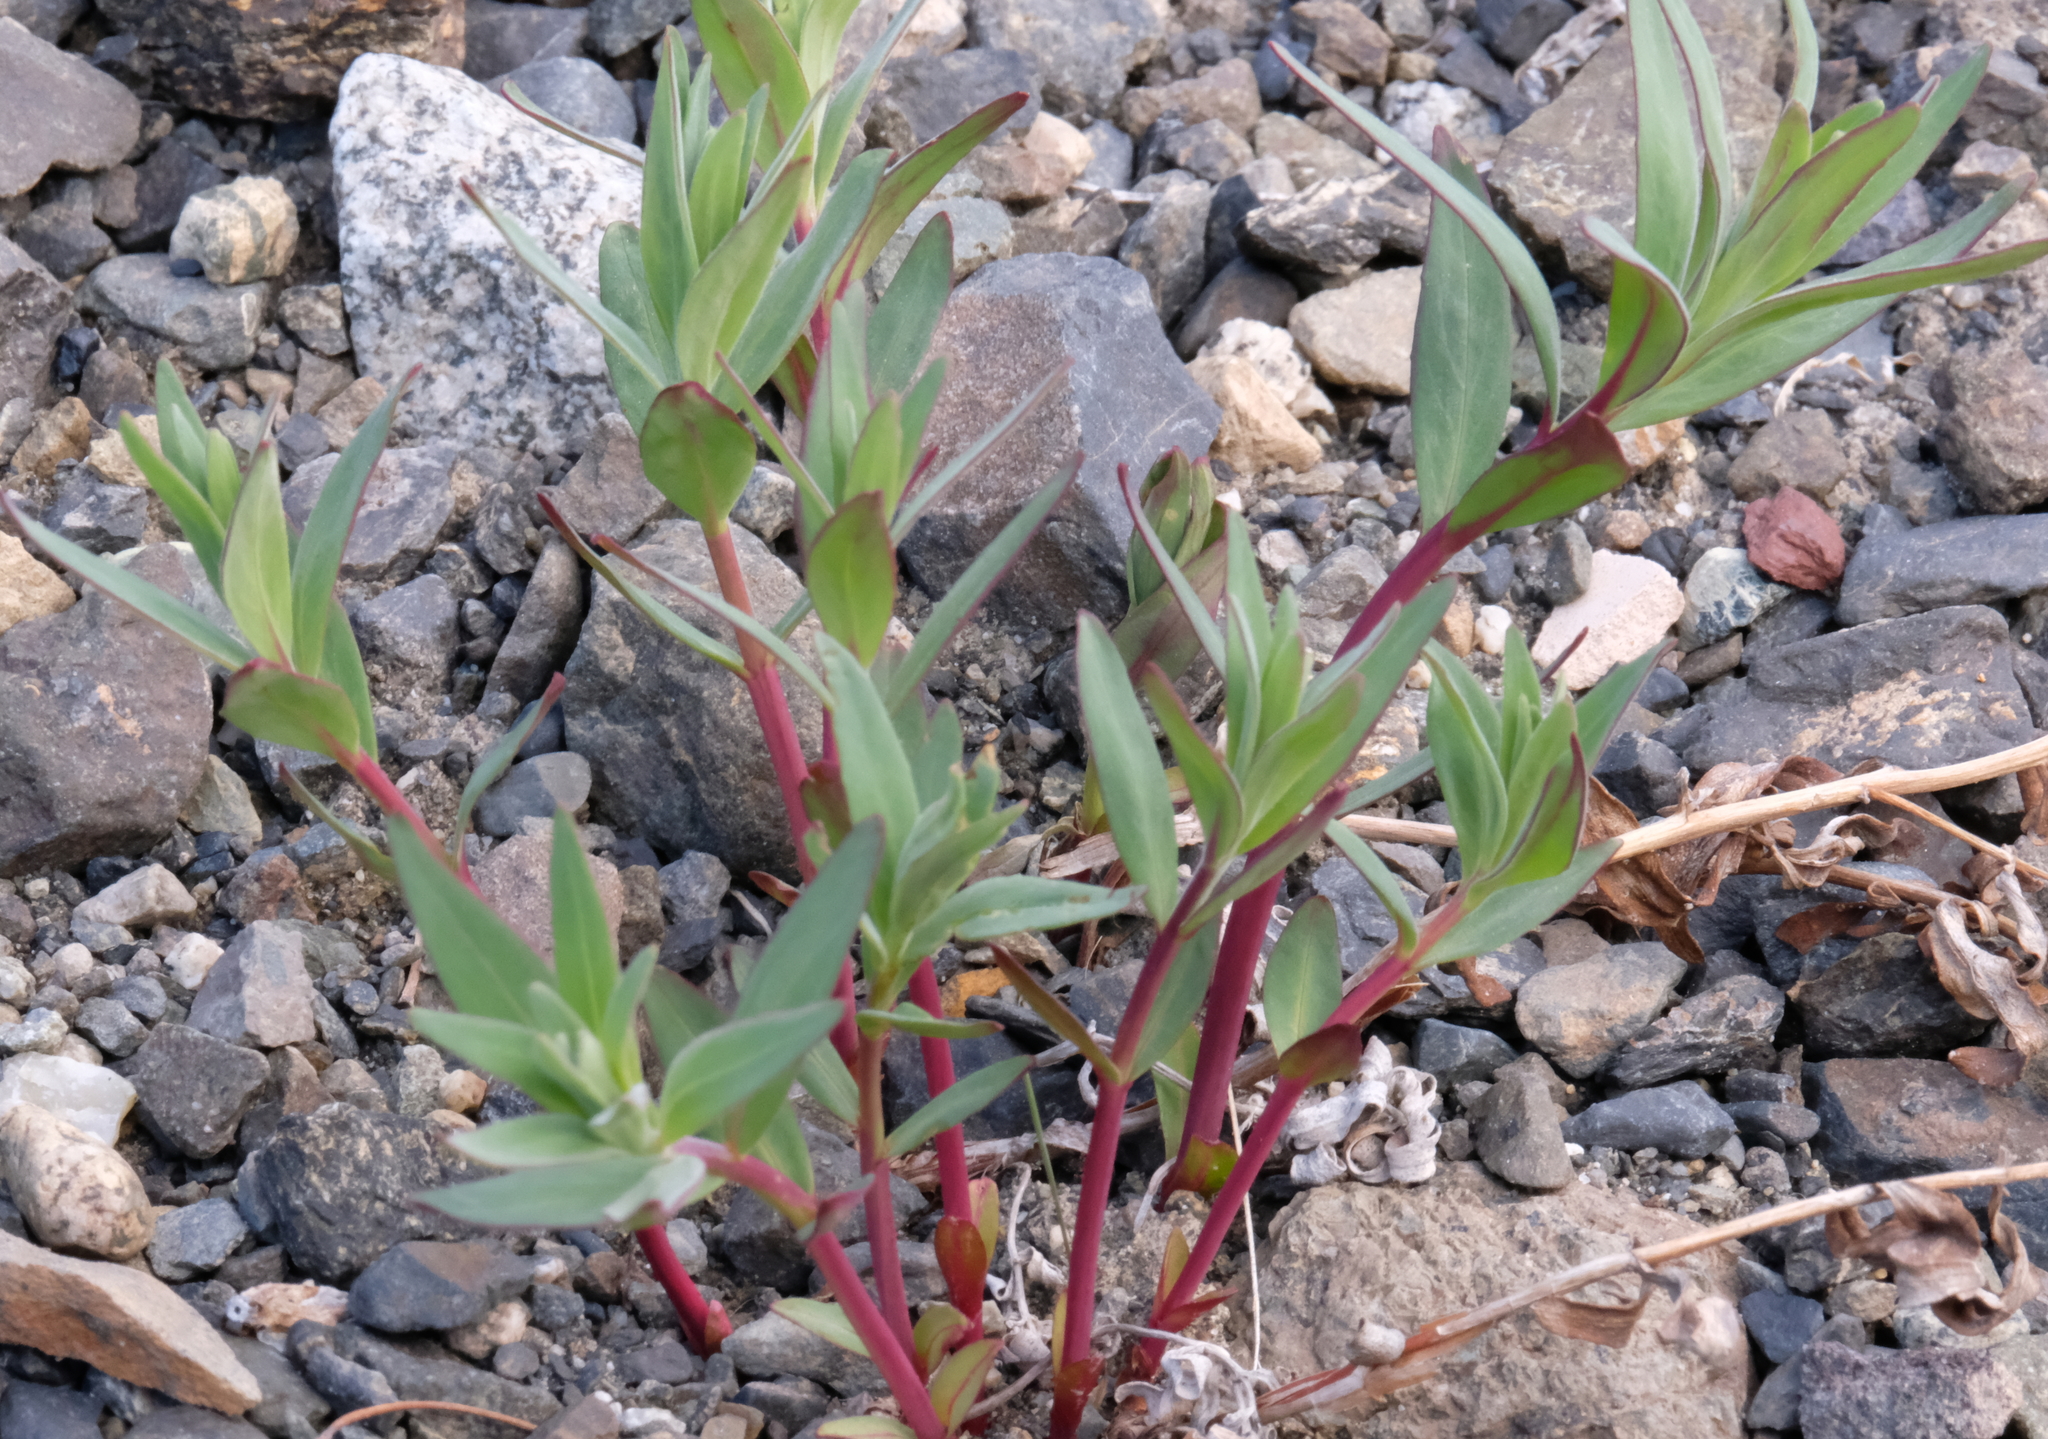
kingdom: Plantae
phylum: Tracheophyta
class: Magnoliopsida
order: Myrtales
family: Onagraceae
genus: Chamaenerion
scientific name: Chamaenerion latifolium
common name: Dwarf fireweed
